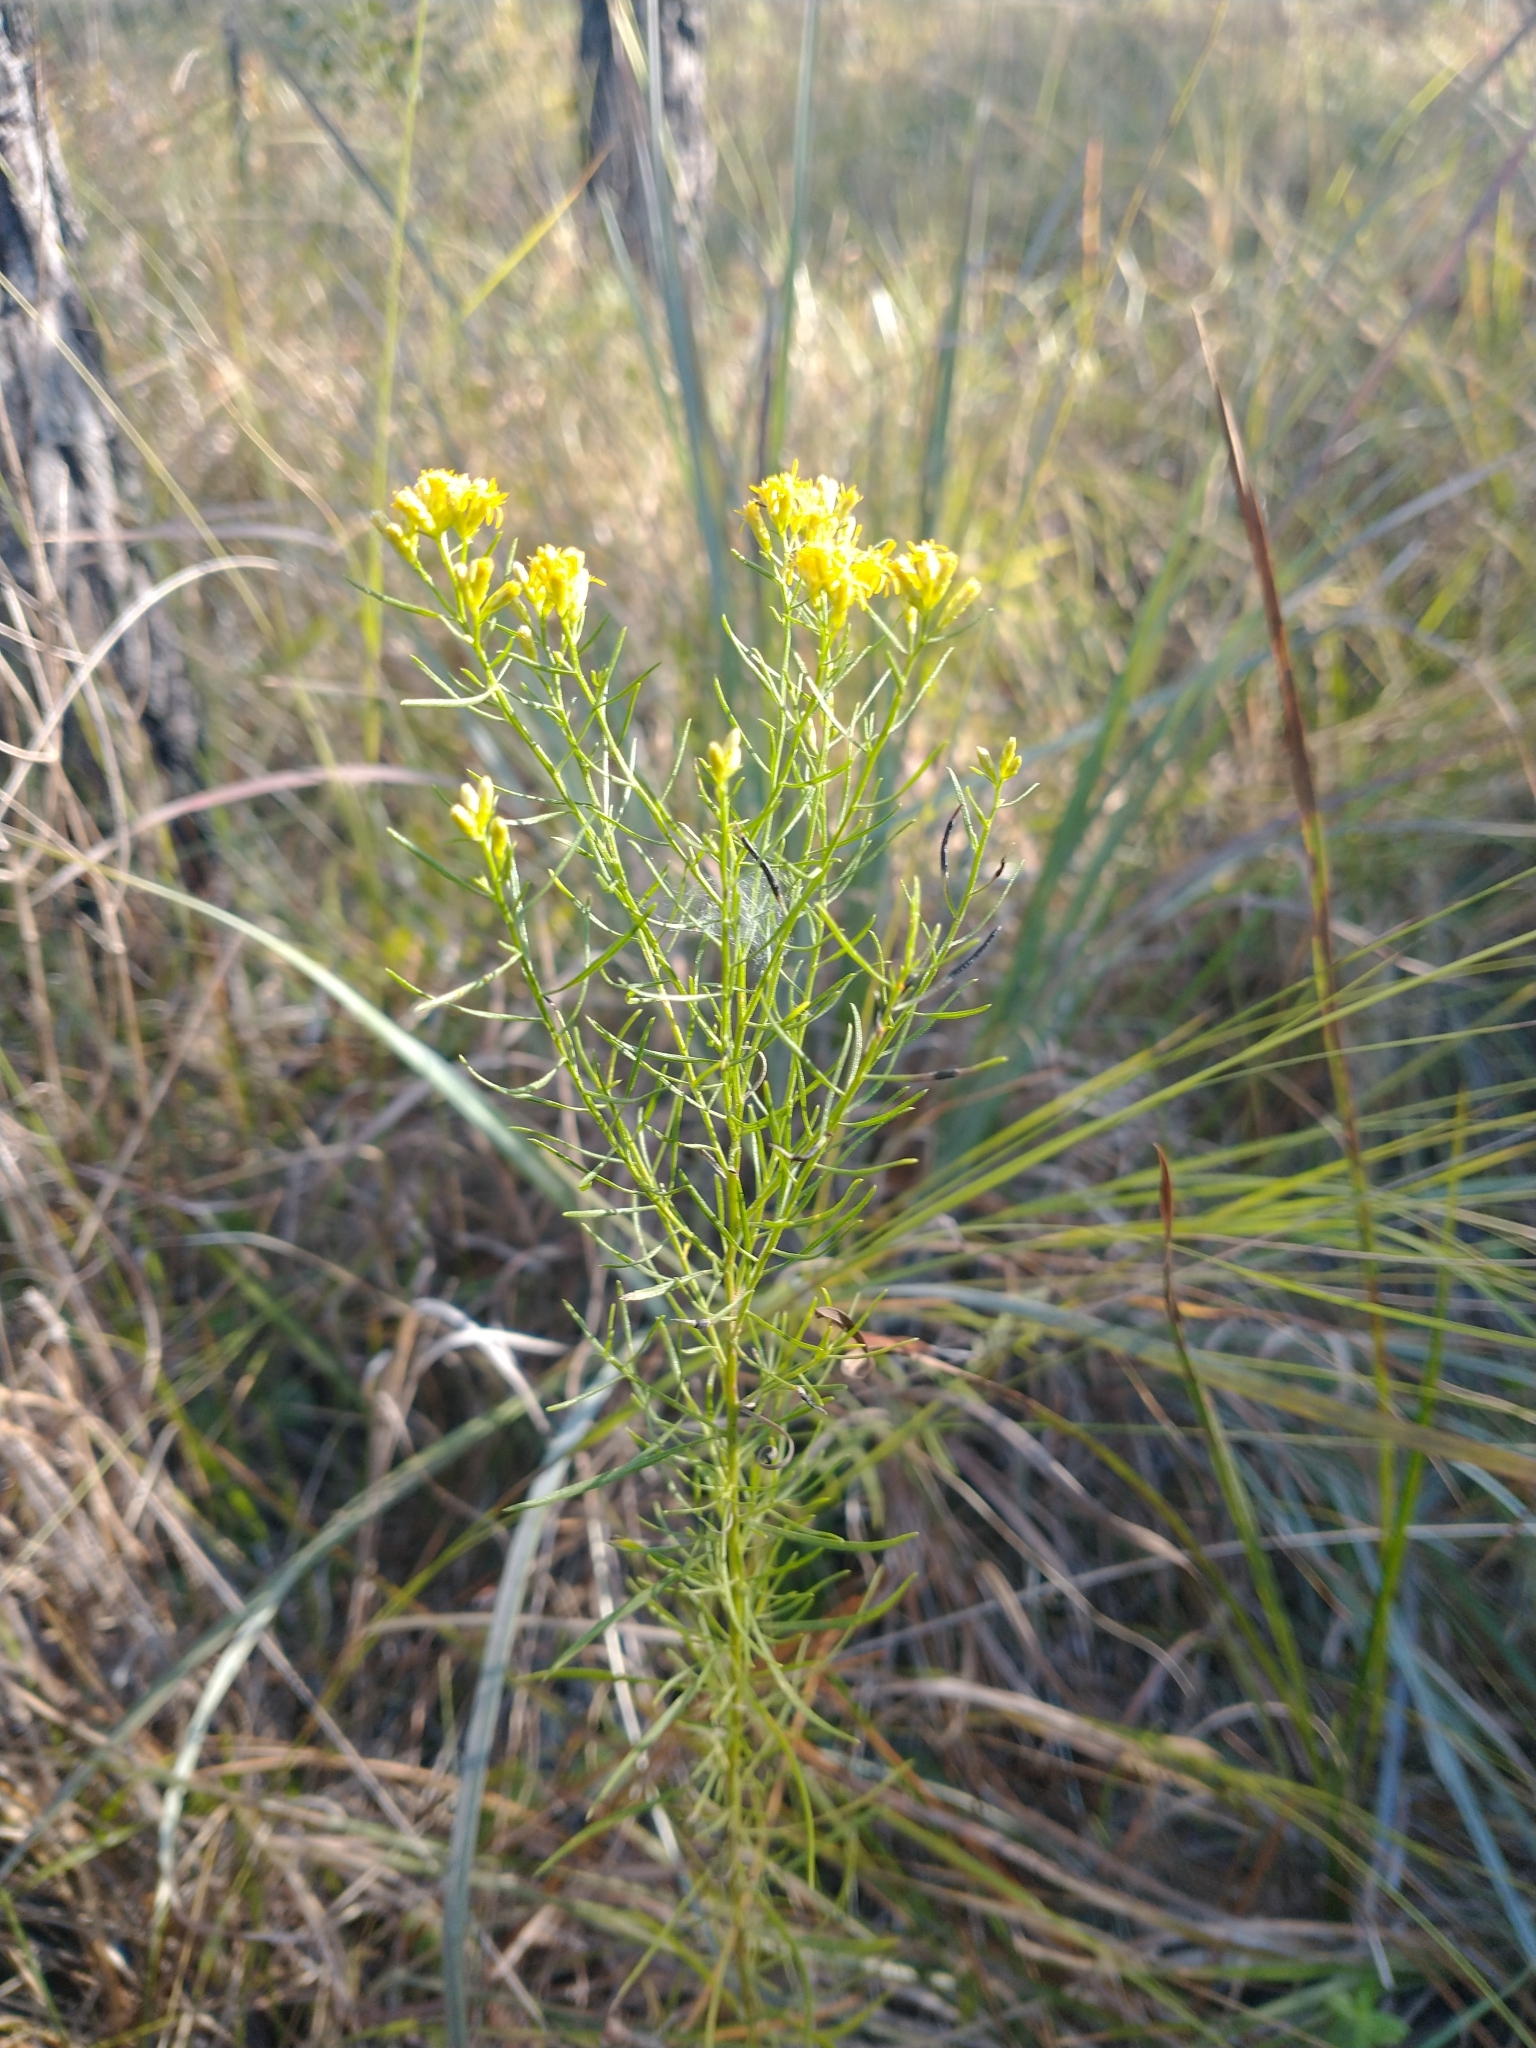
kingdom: Plantae
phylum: Tracheophyta
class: Magnoliopsida
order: Asterales
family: Asteraceae
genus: Euthamia
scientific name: Euthamia caroliniana
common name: Coastal plain goldentop
